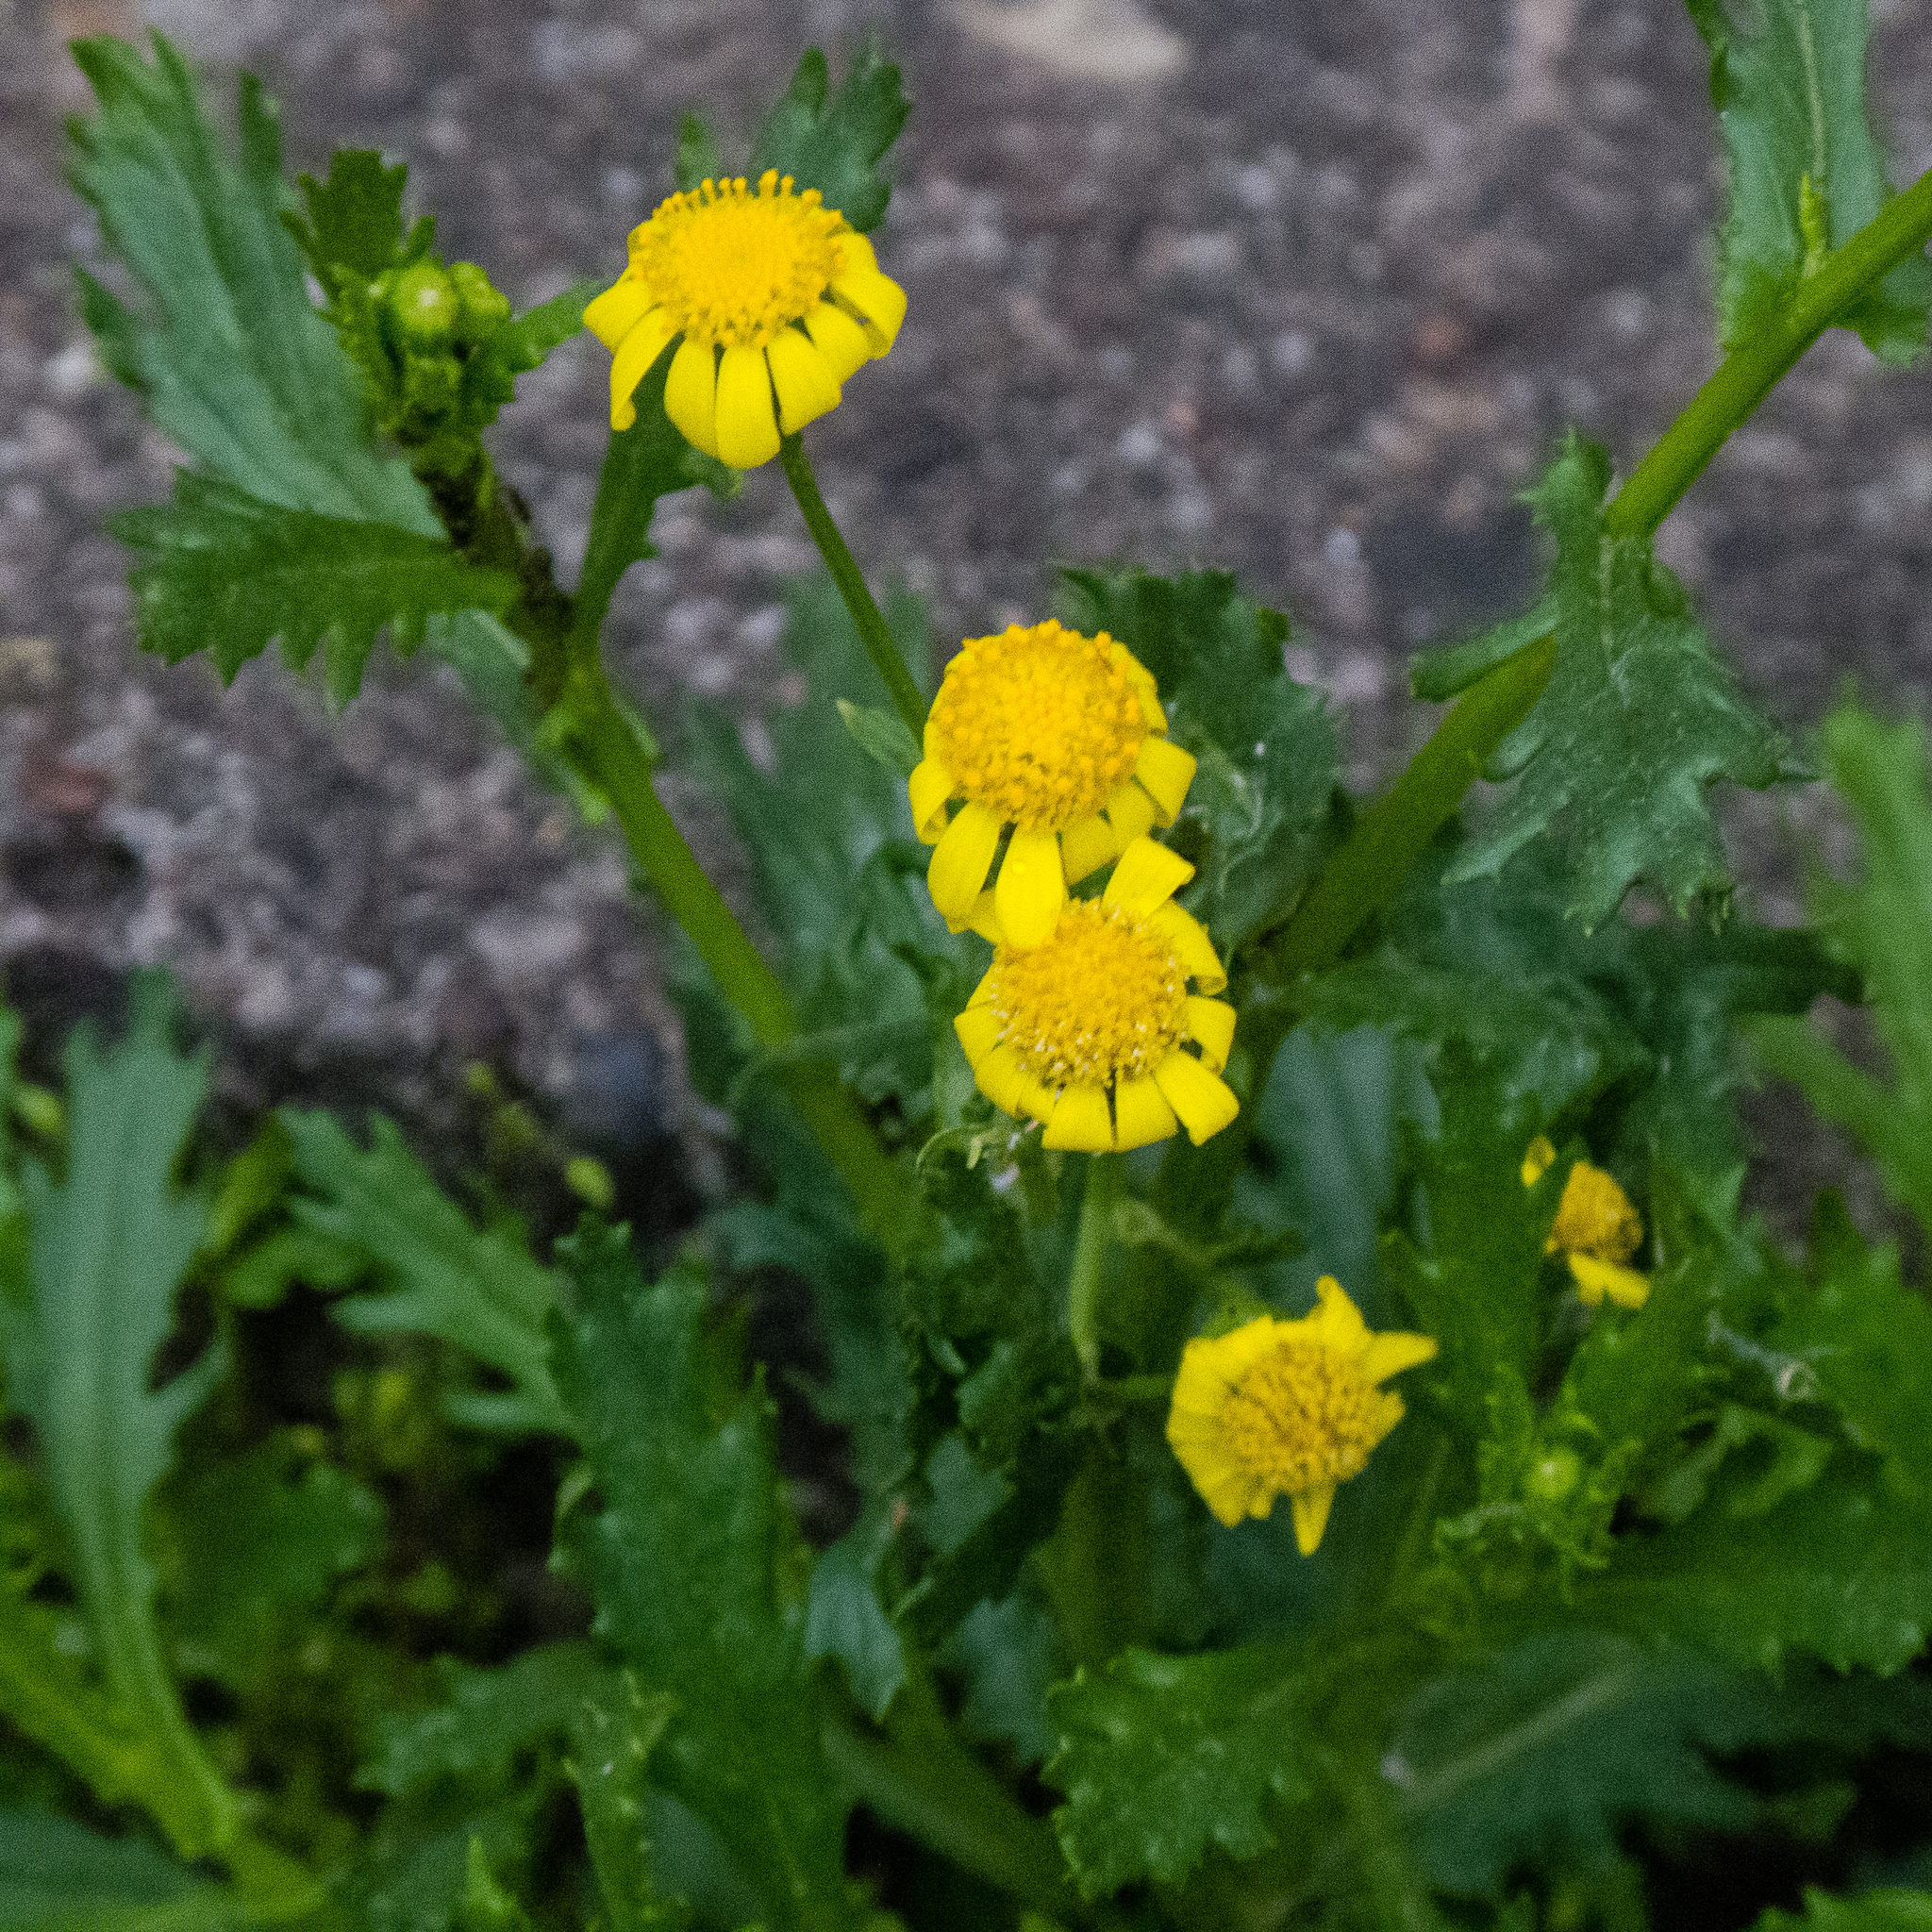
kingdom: Plantae
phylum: Tracheophyta
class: Magnoliopsida
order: Asterales
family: Asteraceae
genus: Senecio
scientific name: Senecio squalidus
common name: Oxford ragwort
